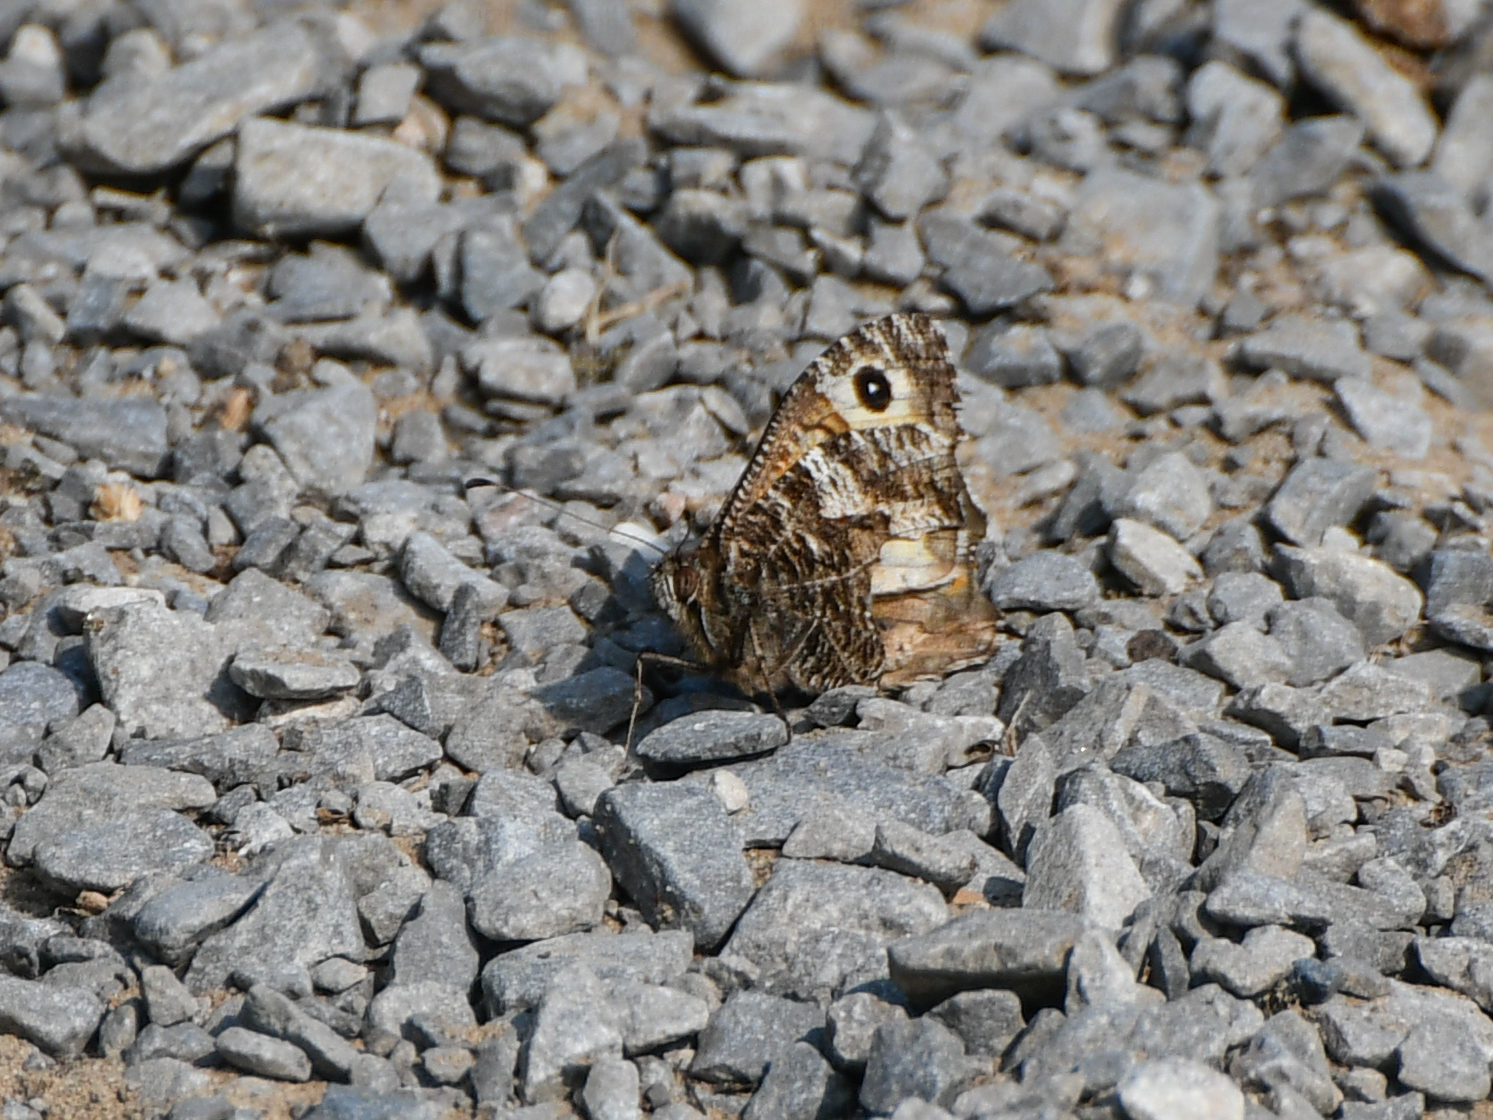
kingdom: Animalia
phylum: Arthropoda
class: Insecta
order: Lepidoptera
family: Nymphalidae
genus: Hipparchia
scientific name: Hipparchia semele
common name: Grayling
